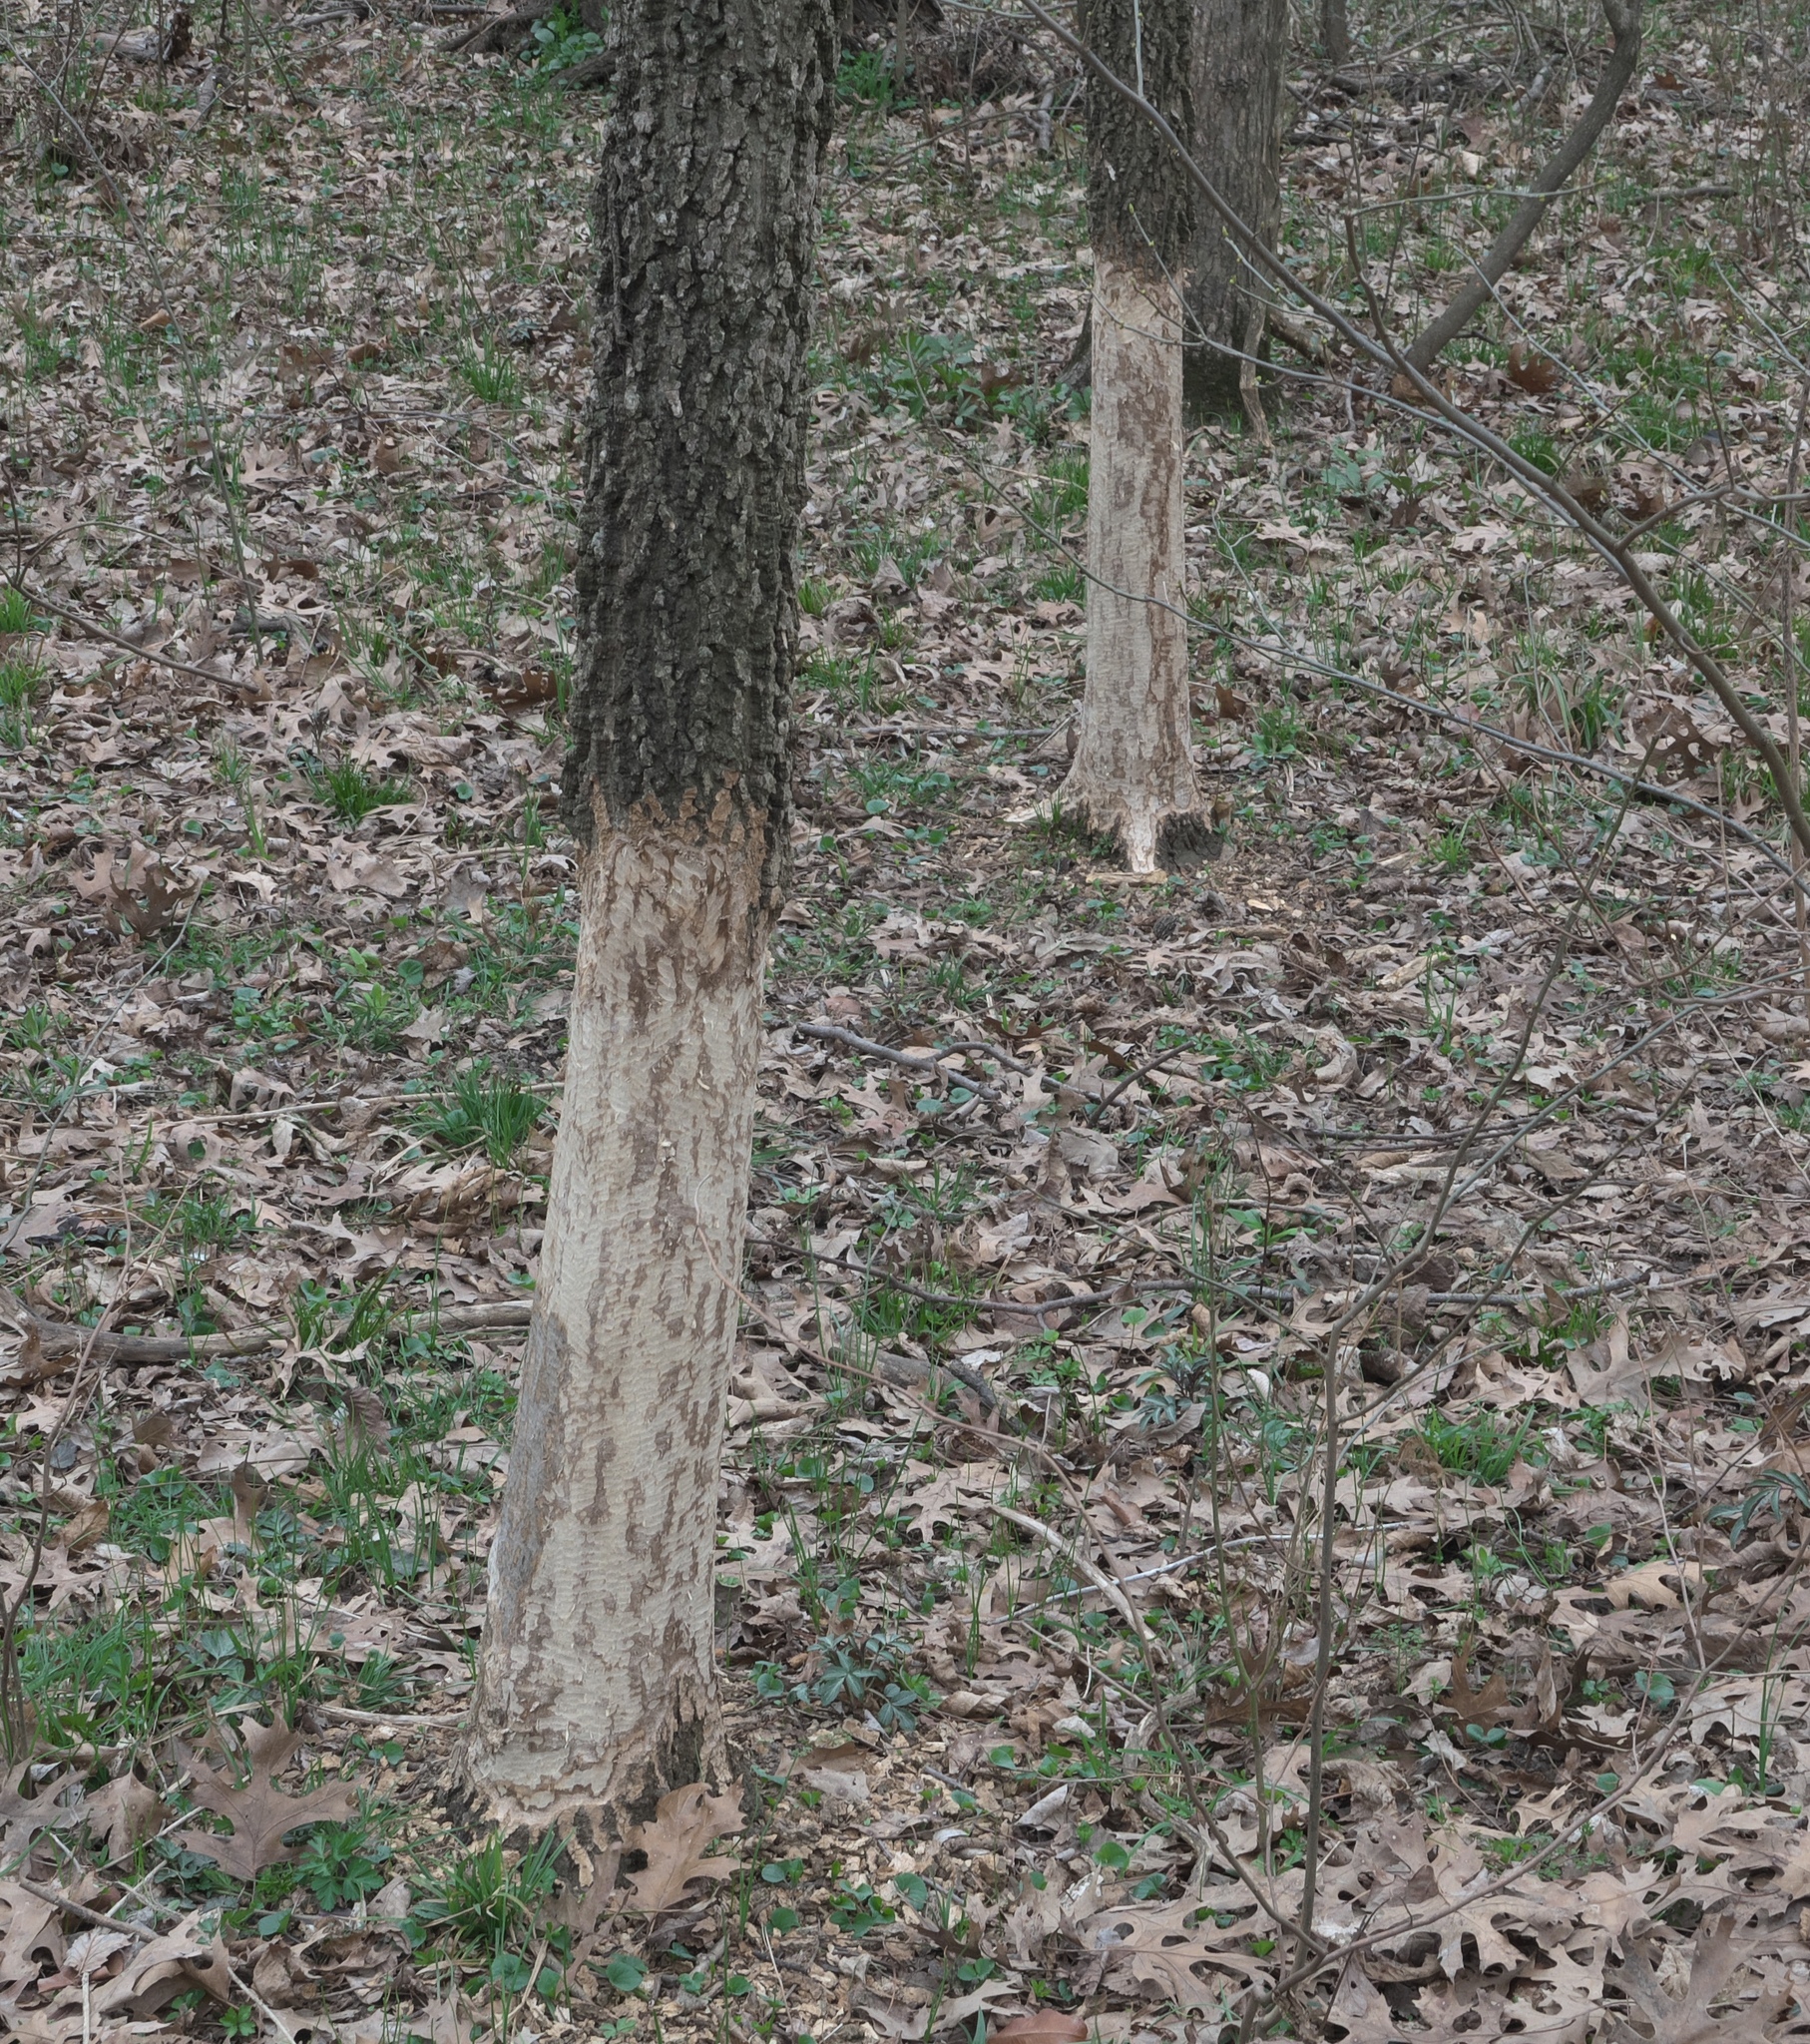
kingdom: Animalia
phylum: Chordata
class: Mammalia
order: Rodentia
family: Castoridae
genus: Castor
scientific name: Castor canadensis
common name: American beaver
